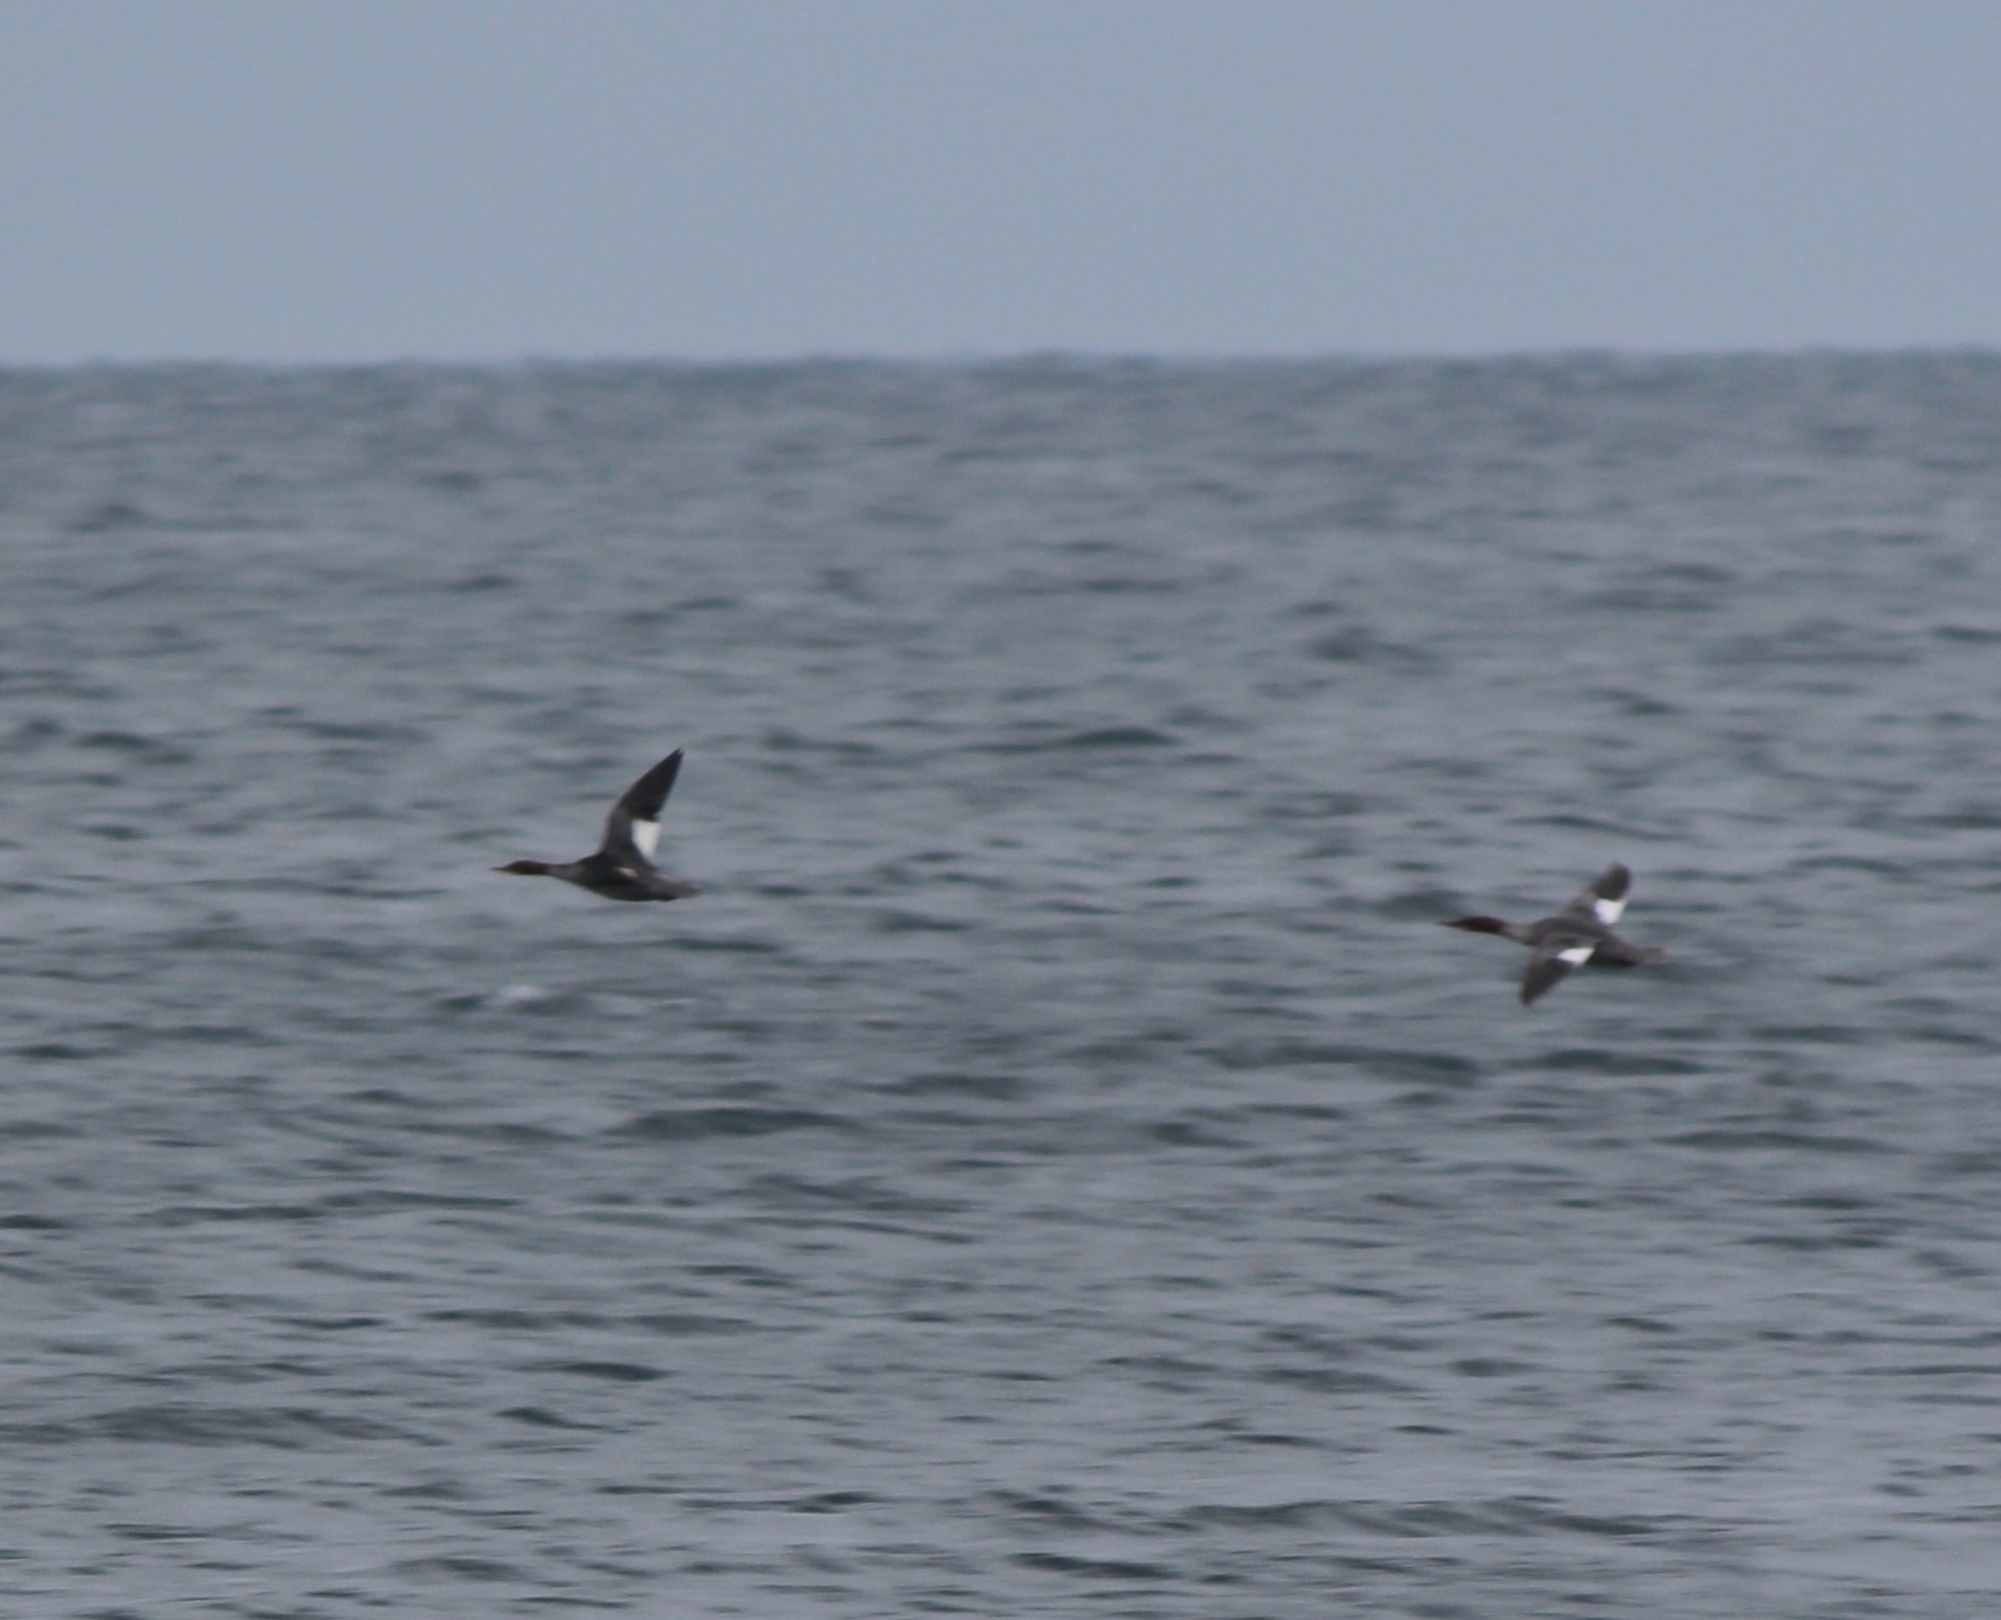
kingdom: Animalia
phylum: Chordata
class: Aves
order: Anseriformes
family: Anatidae
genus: Mergus
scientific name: Mergus merganser
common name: Common merganser
